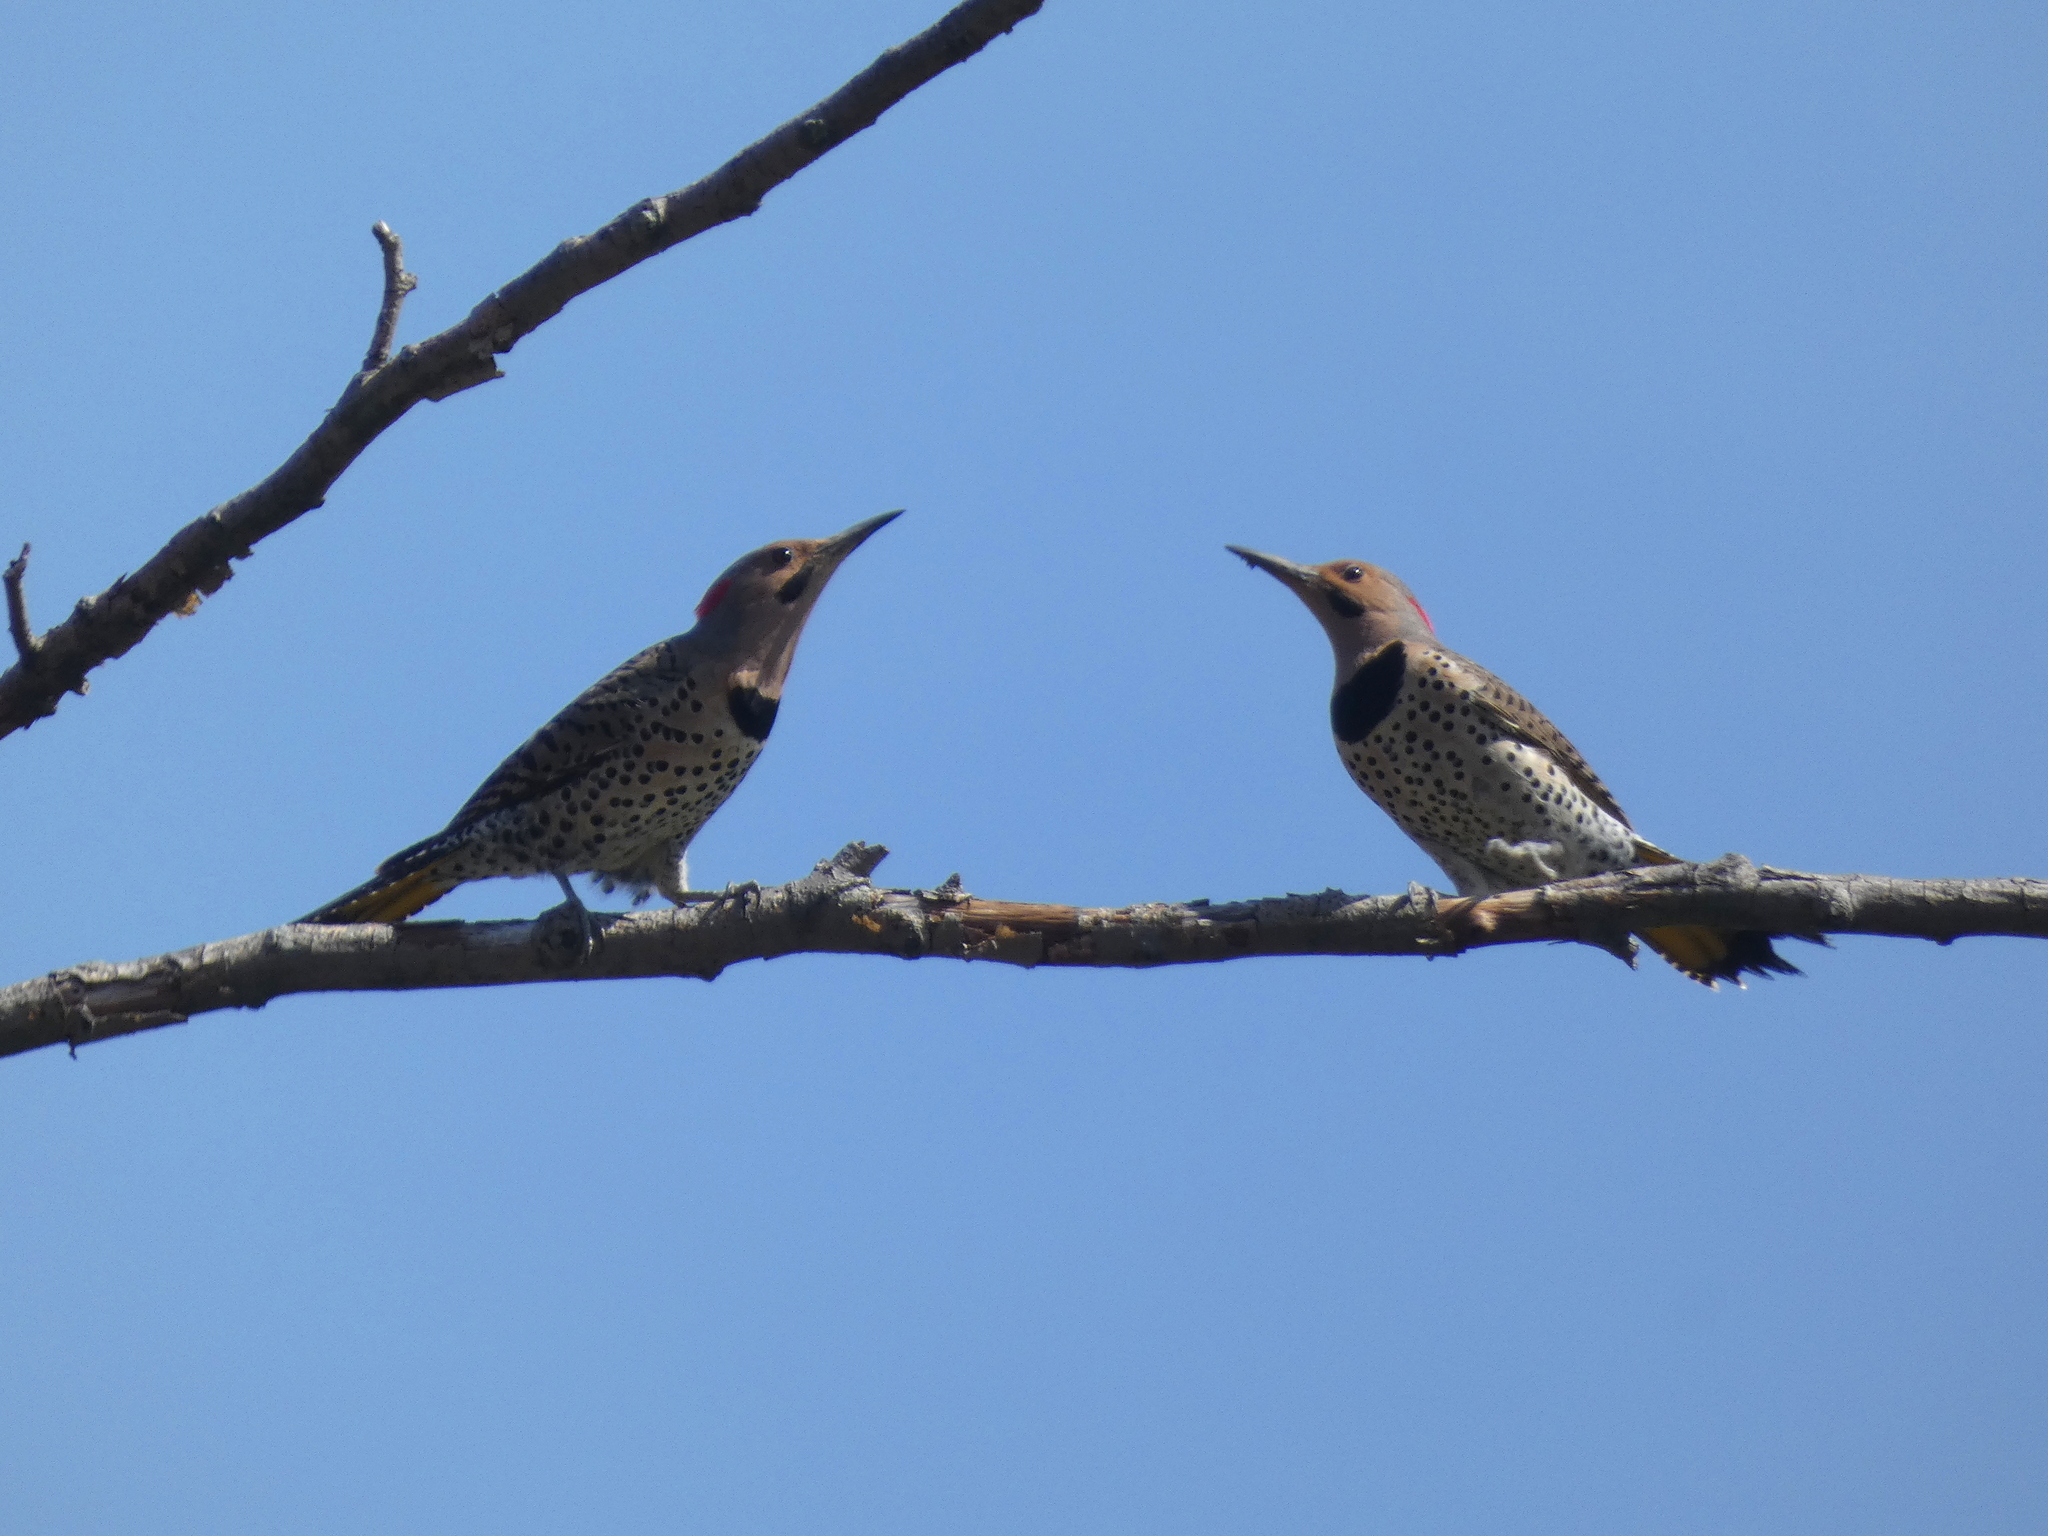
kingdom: Animalia
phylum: Chordata
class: Aves
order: Piciformes
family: Picidae
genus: Colaptes
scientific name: Colaptes auratus
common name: Northern flicker
